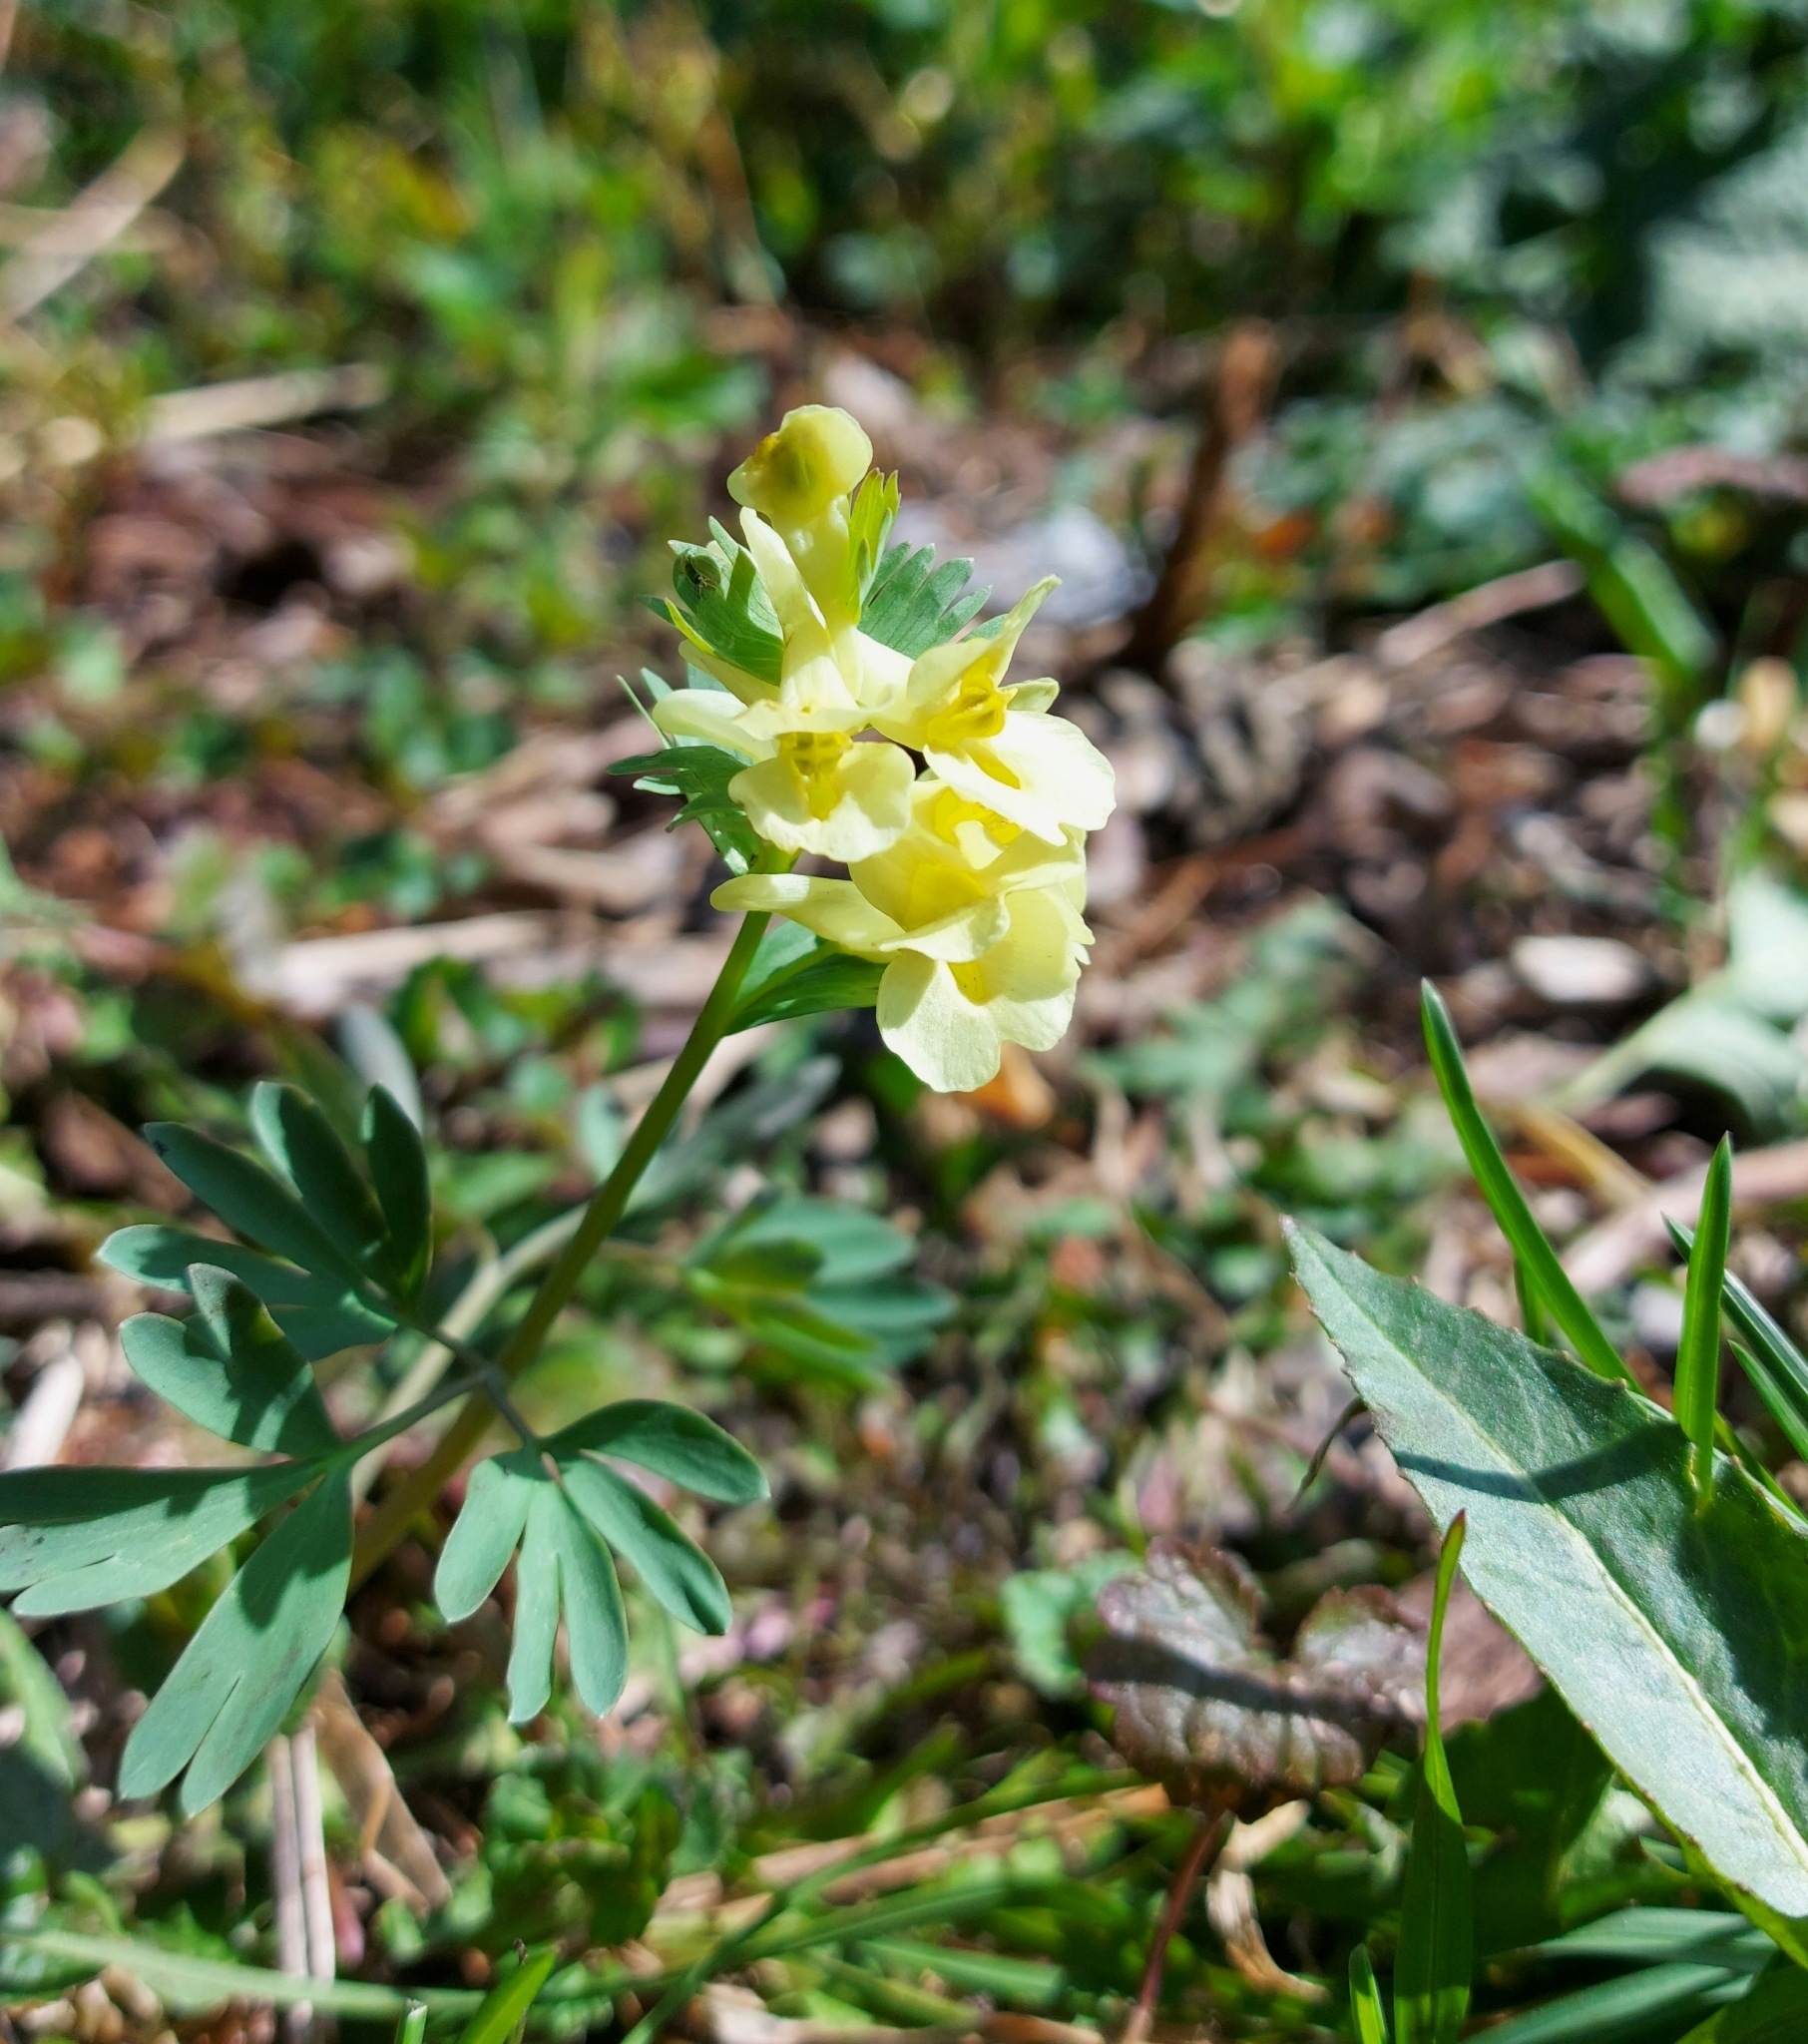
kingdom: Plantae
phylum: Tracheophyta
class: Magnoliopsida
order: Ranunculales
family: Papaveraceae
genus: Corydalis
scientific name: Corydalis bracteata
